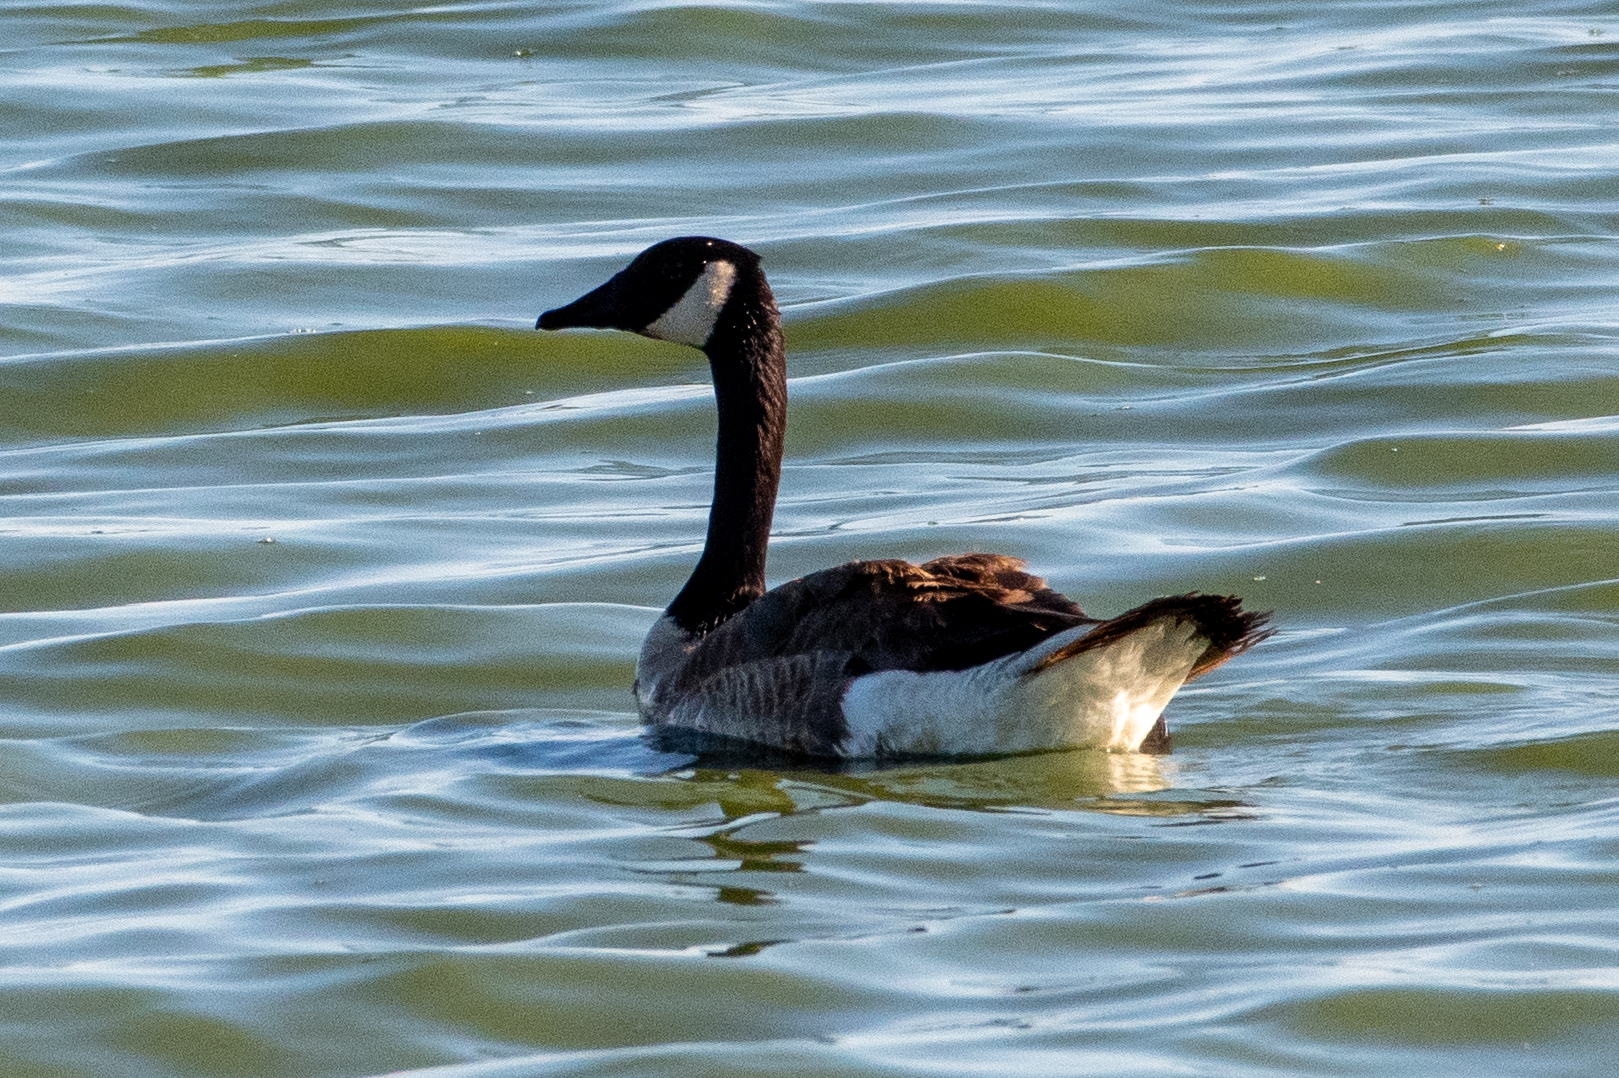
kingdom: Animalia
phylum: Chordata
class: Aves
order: Anseriformes
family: Anatidae
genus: Branta
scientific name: Branta canadensis
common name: Canada goose
